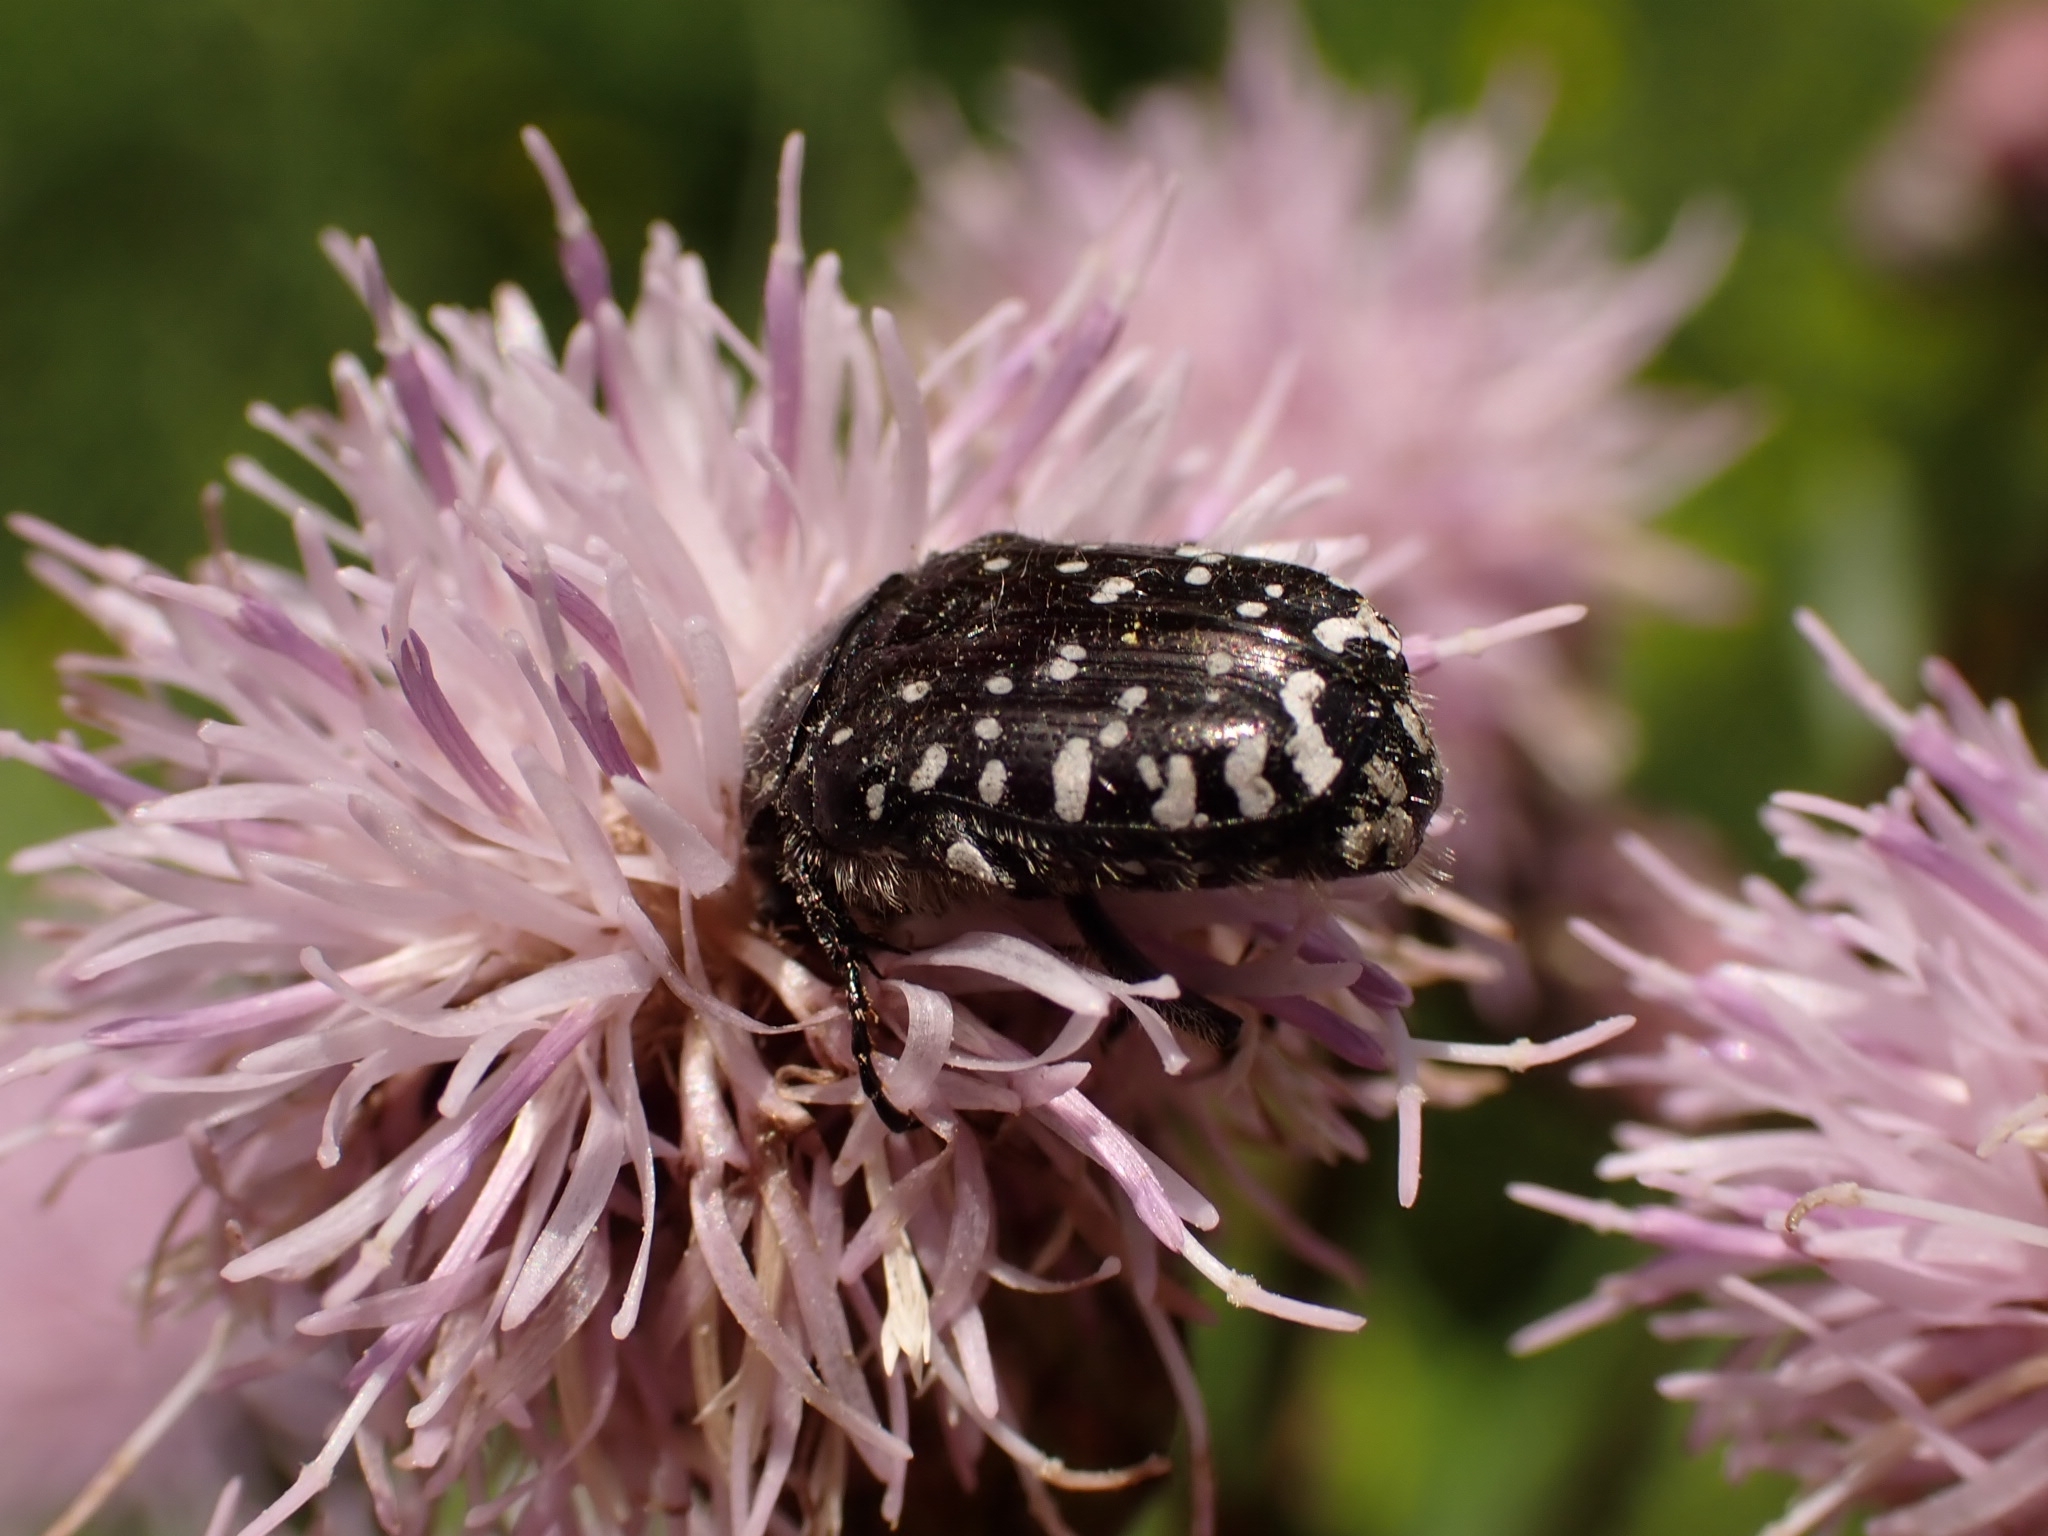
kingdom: Animalia
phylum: Arthropoda
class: Insecta
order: Coleoptera
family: Scarabaeidae
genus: Oxythyrea
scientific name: Oxythyrea funesta
